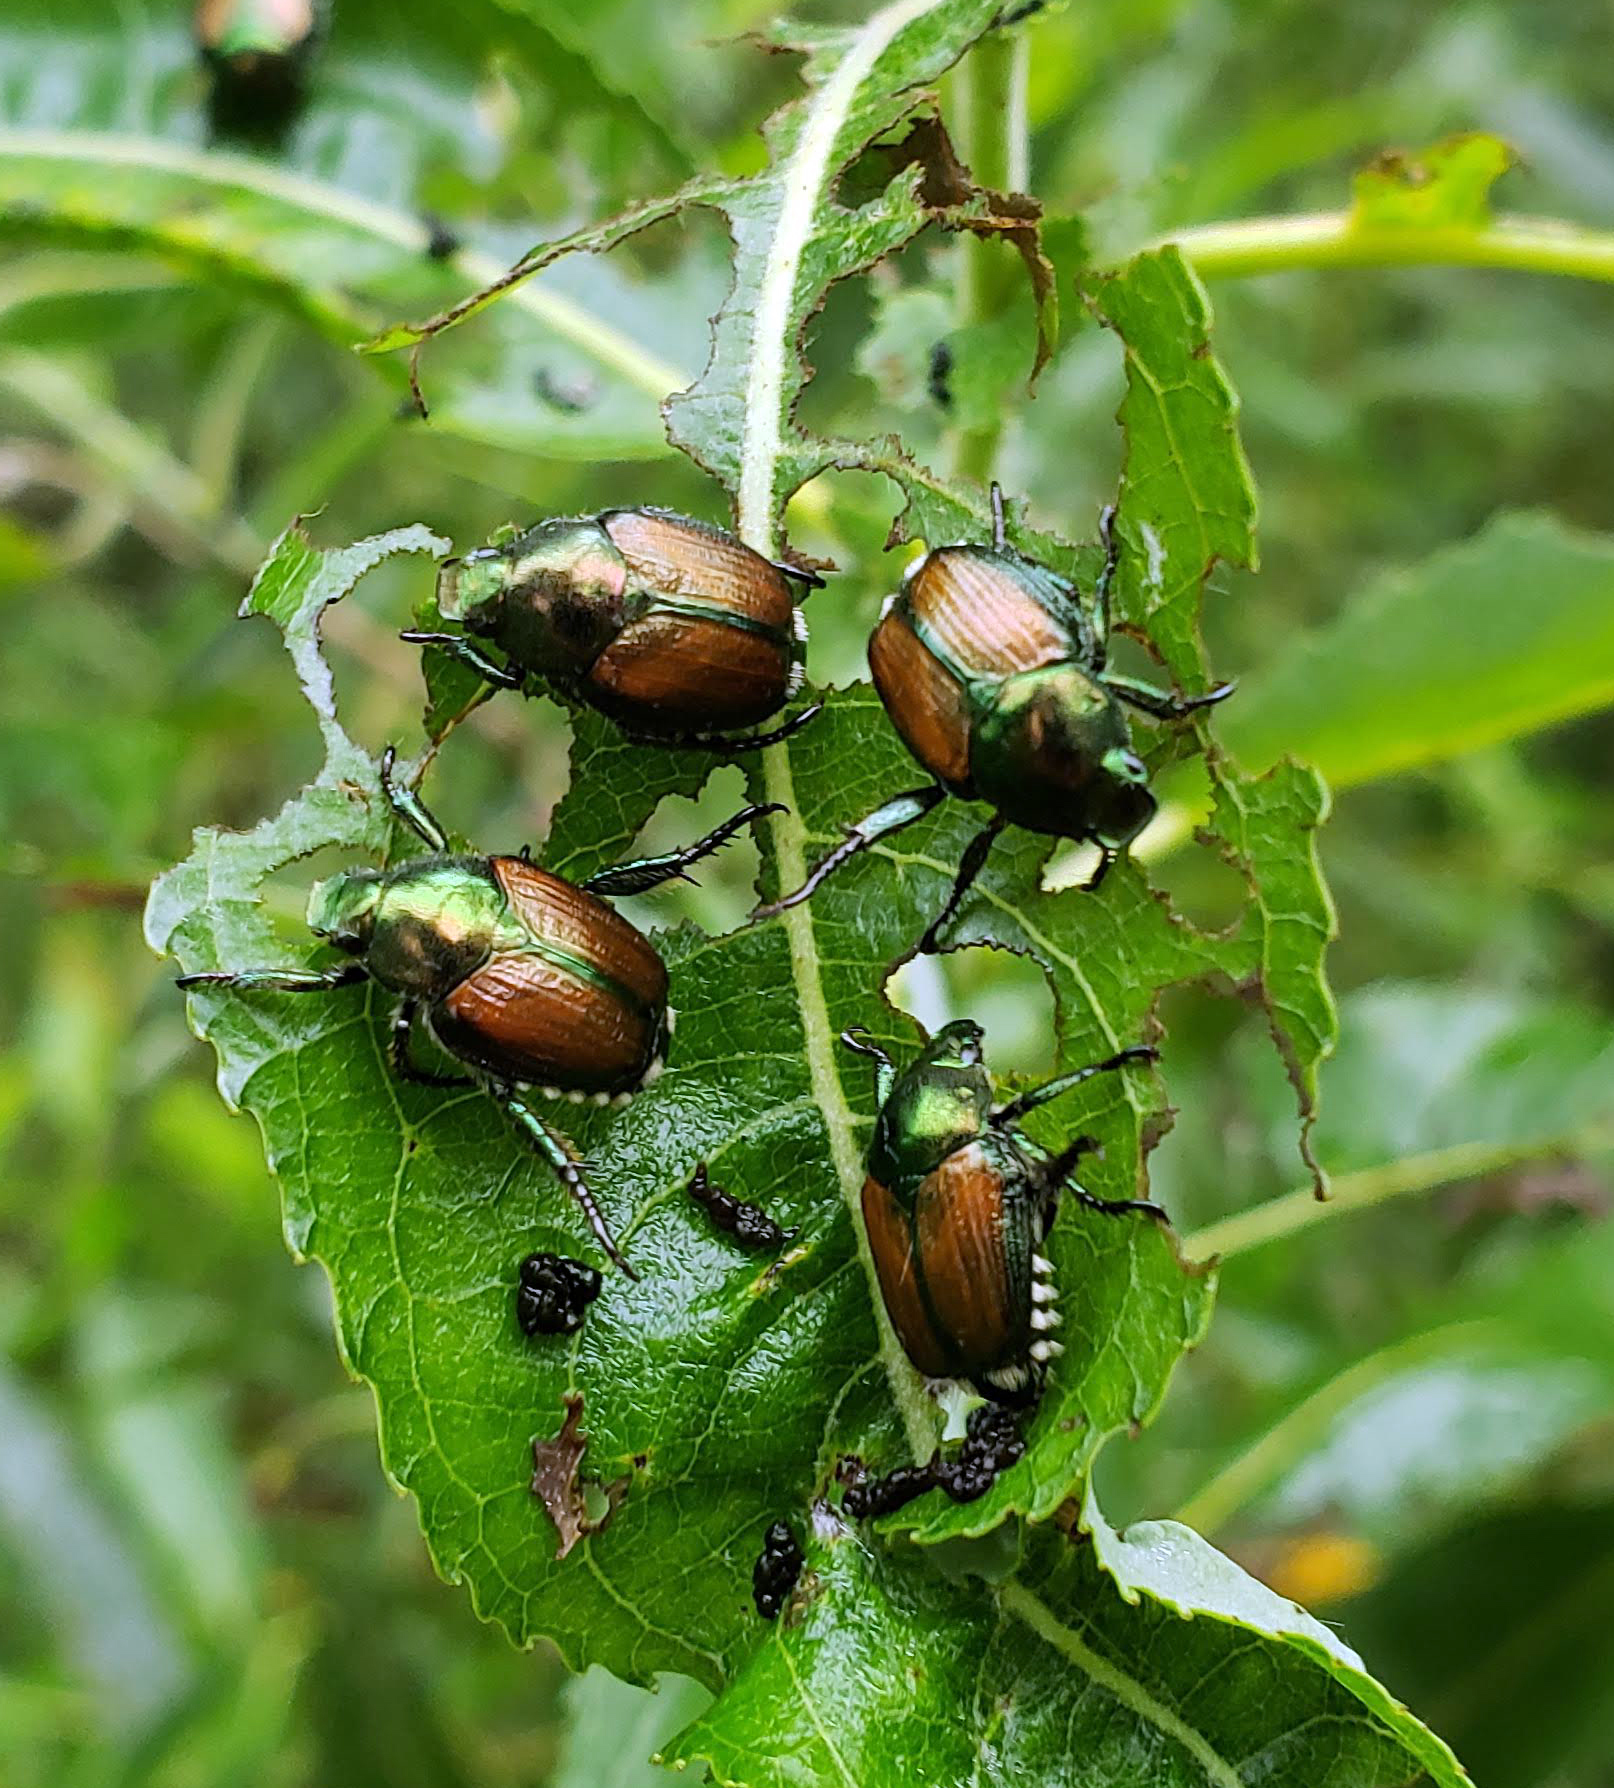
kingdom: Animalia
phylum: Arthropoda
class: Insecta
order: Coleoptera
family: Scarabaeidae
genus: Popillia
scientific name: Popillia japonica
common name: Japanese beetle
